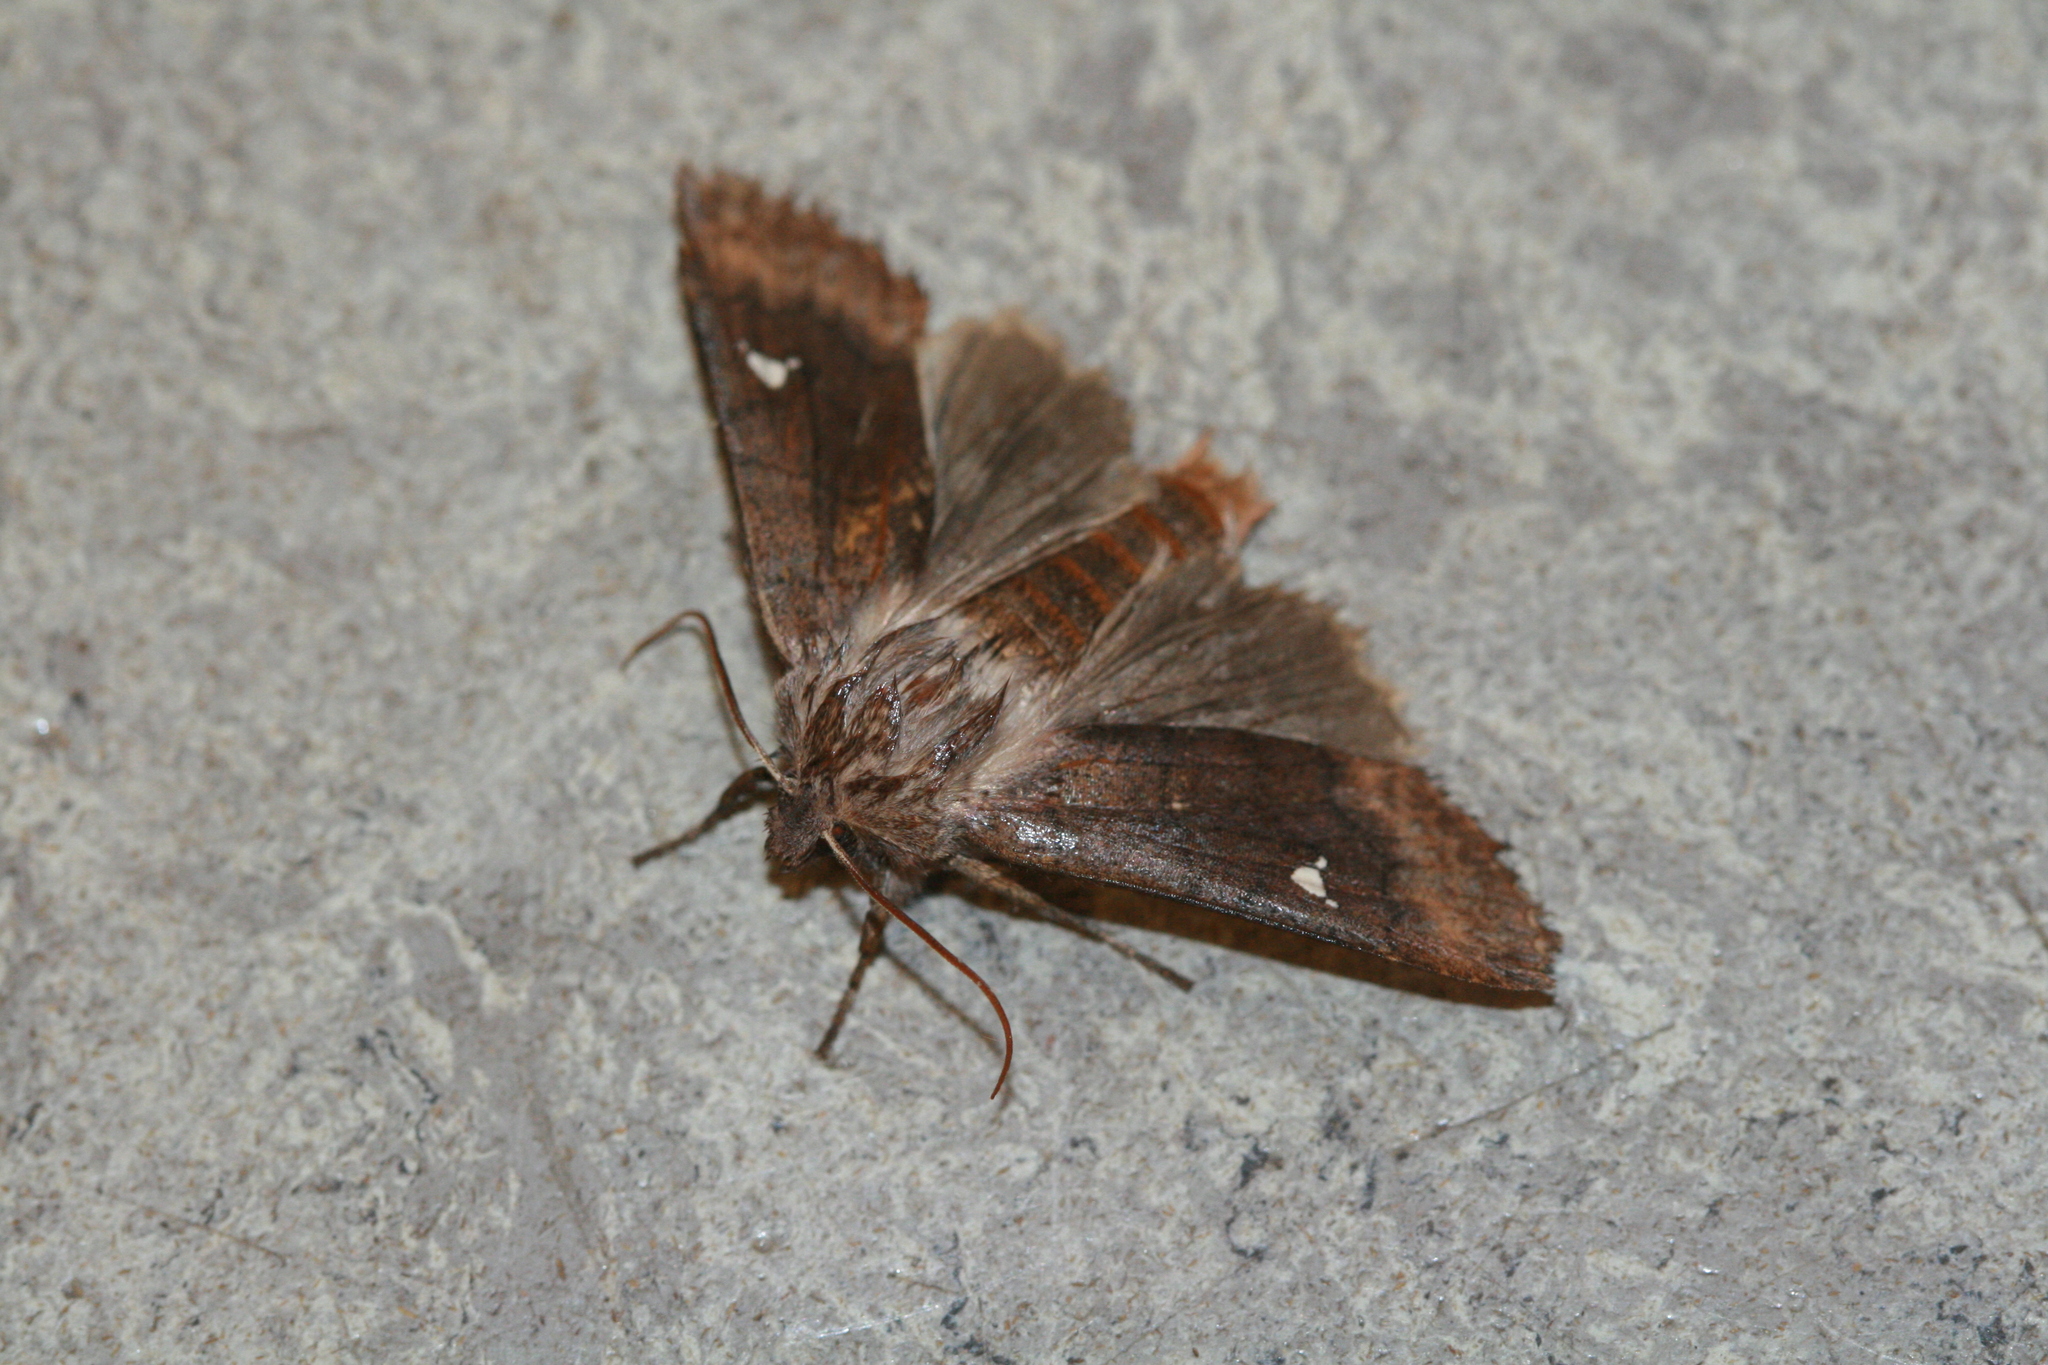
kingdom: Animalia
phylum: Arthropoda
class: Insecta
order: Lepidoptera
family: Noctuidae
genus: Eupsilia
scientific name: Eupsilia transversa
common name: Satellite
